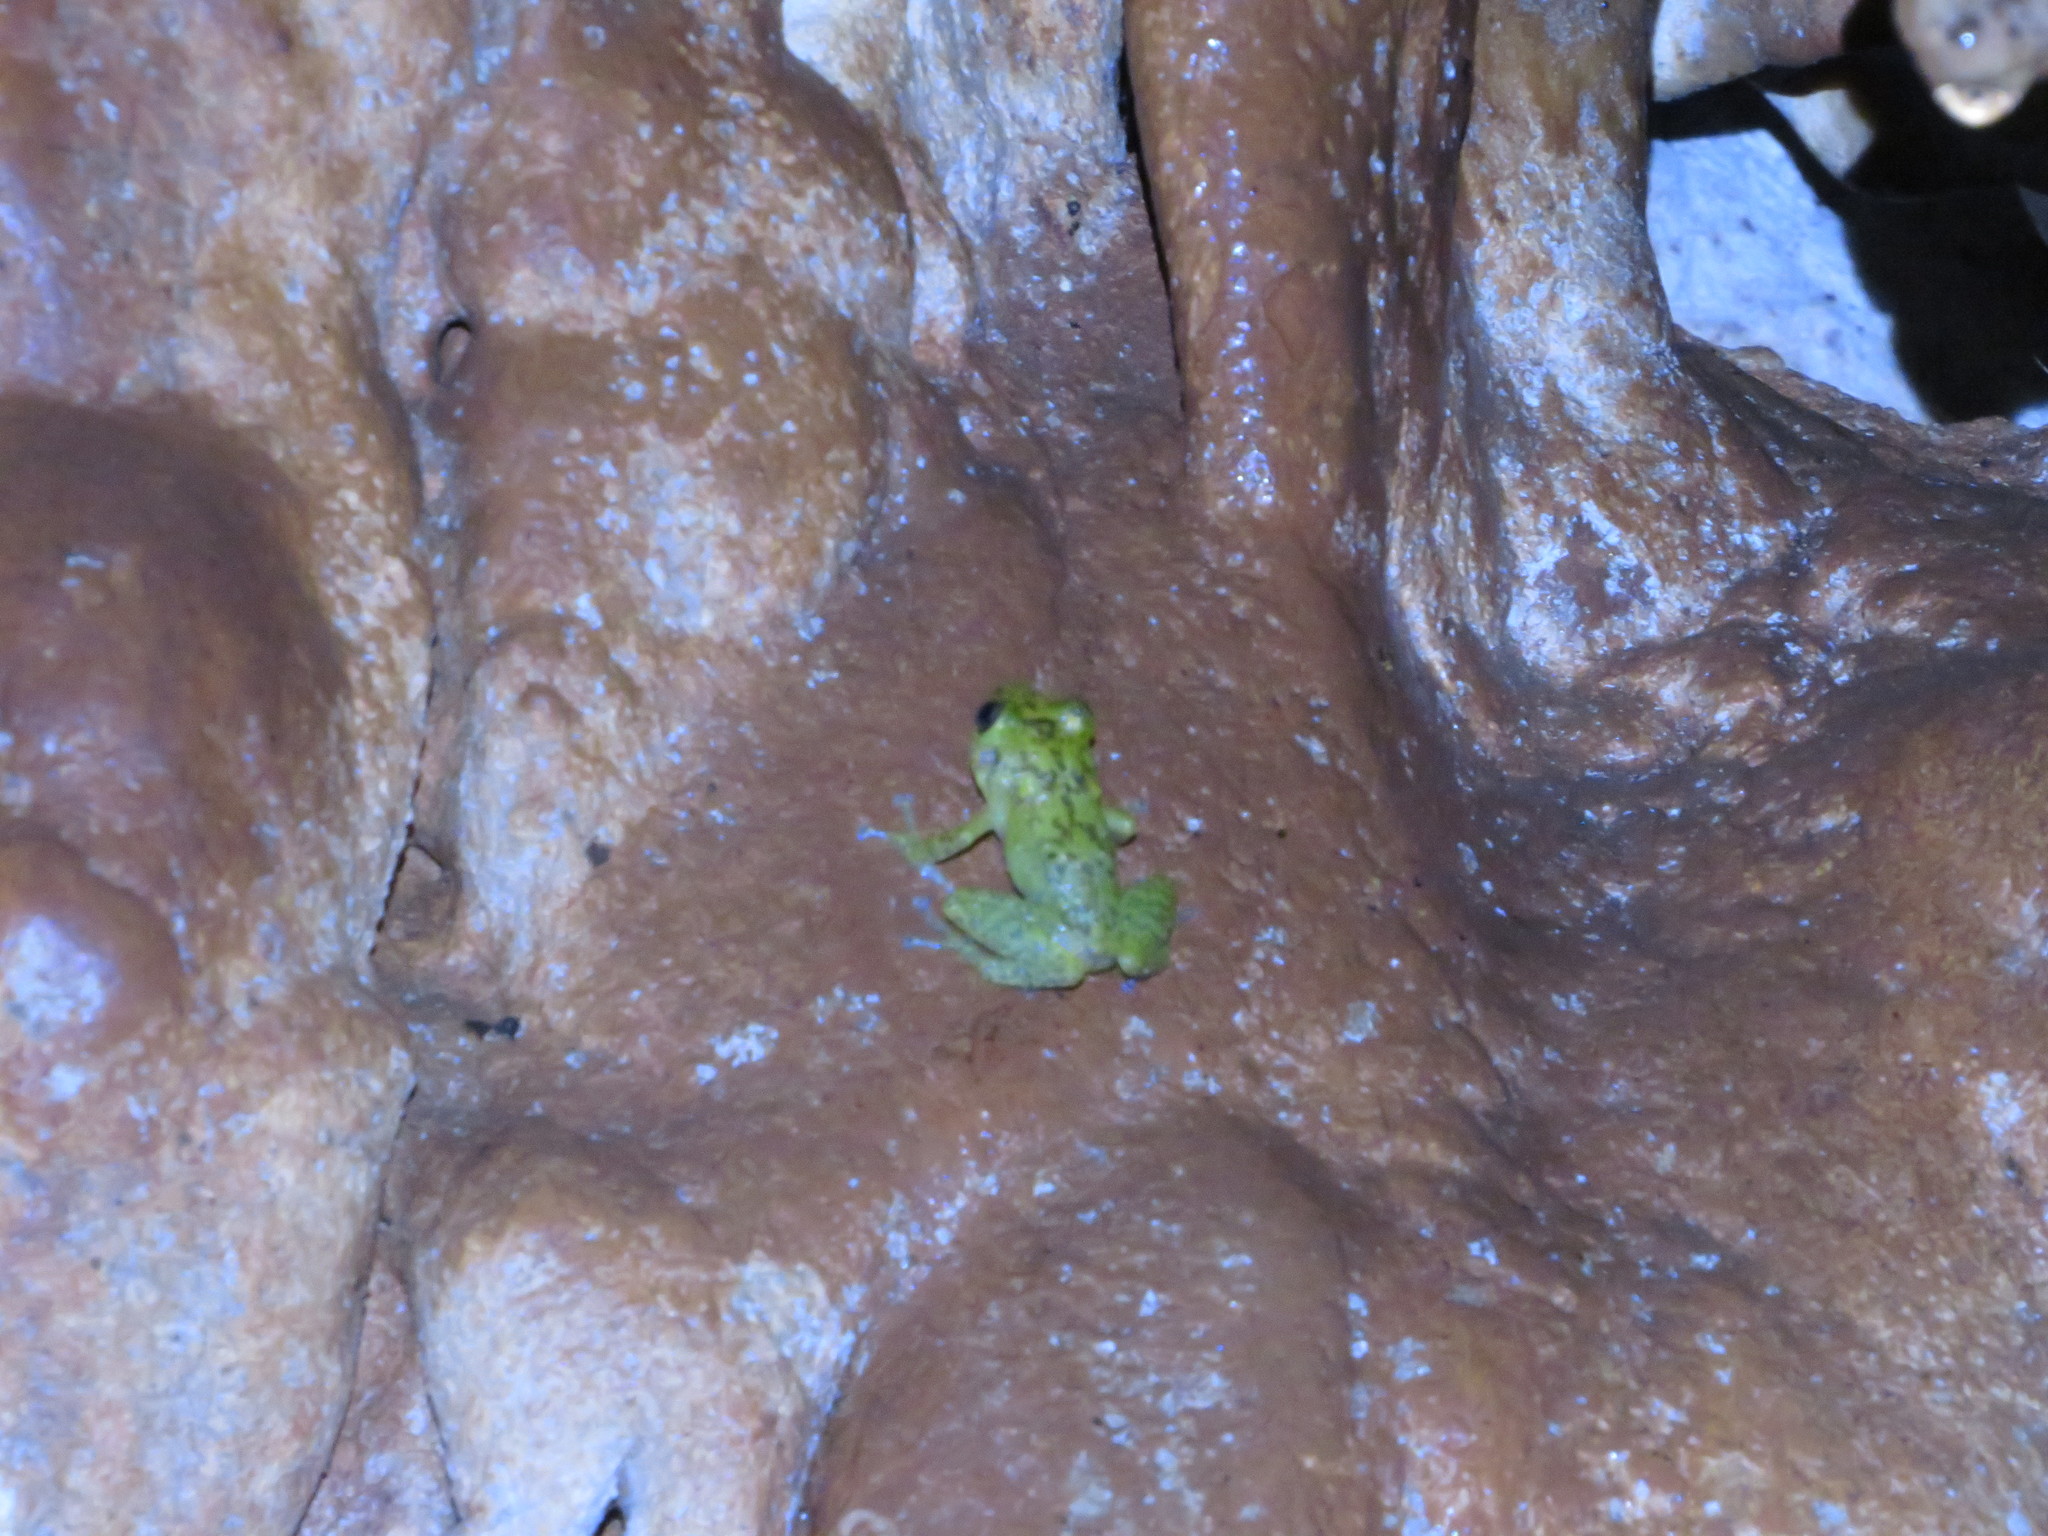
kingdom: Animalia
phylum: Chordata
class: Amphibia
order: Anura
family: Eleutherodactylidae
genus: Eleutherodactylus
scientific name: Eleutherodactylus flavescens
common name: Yellow split-toed frog
